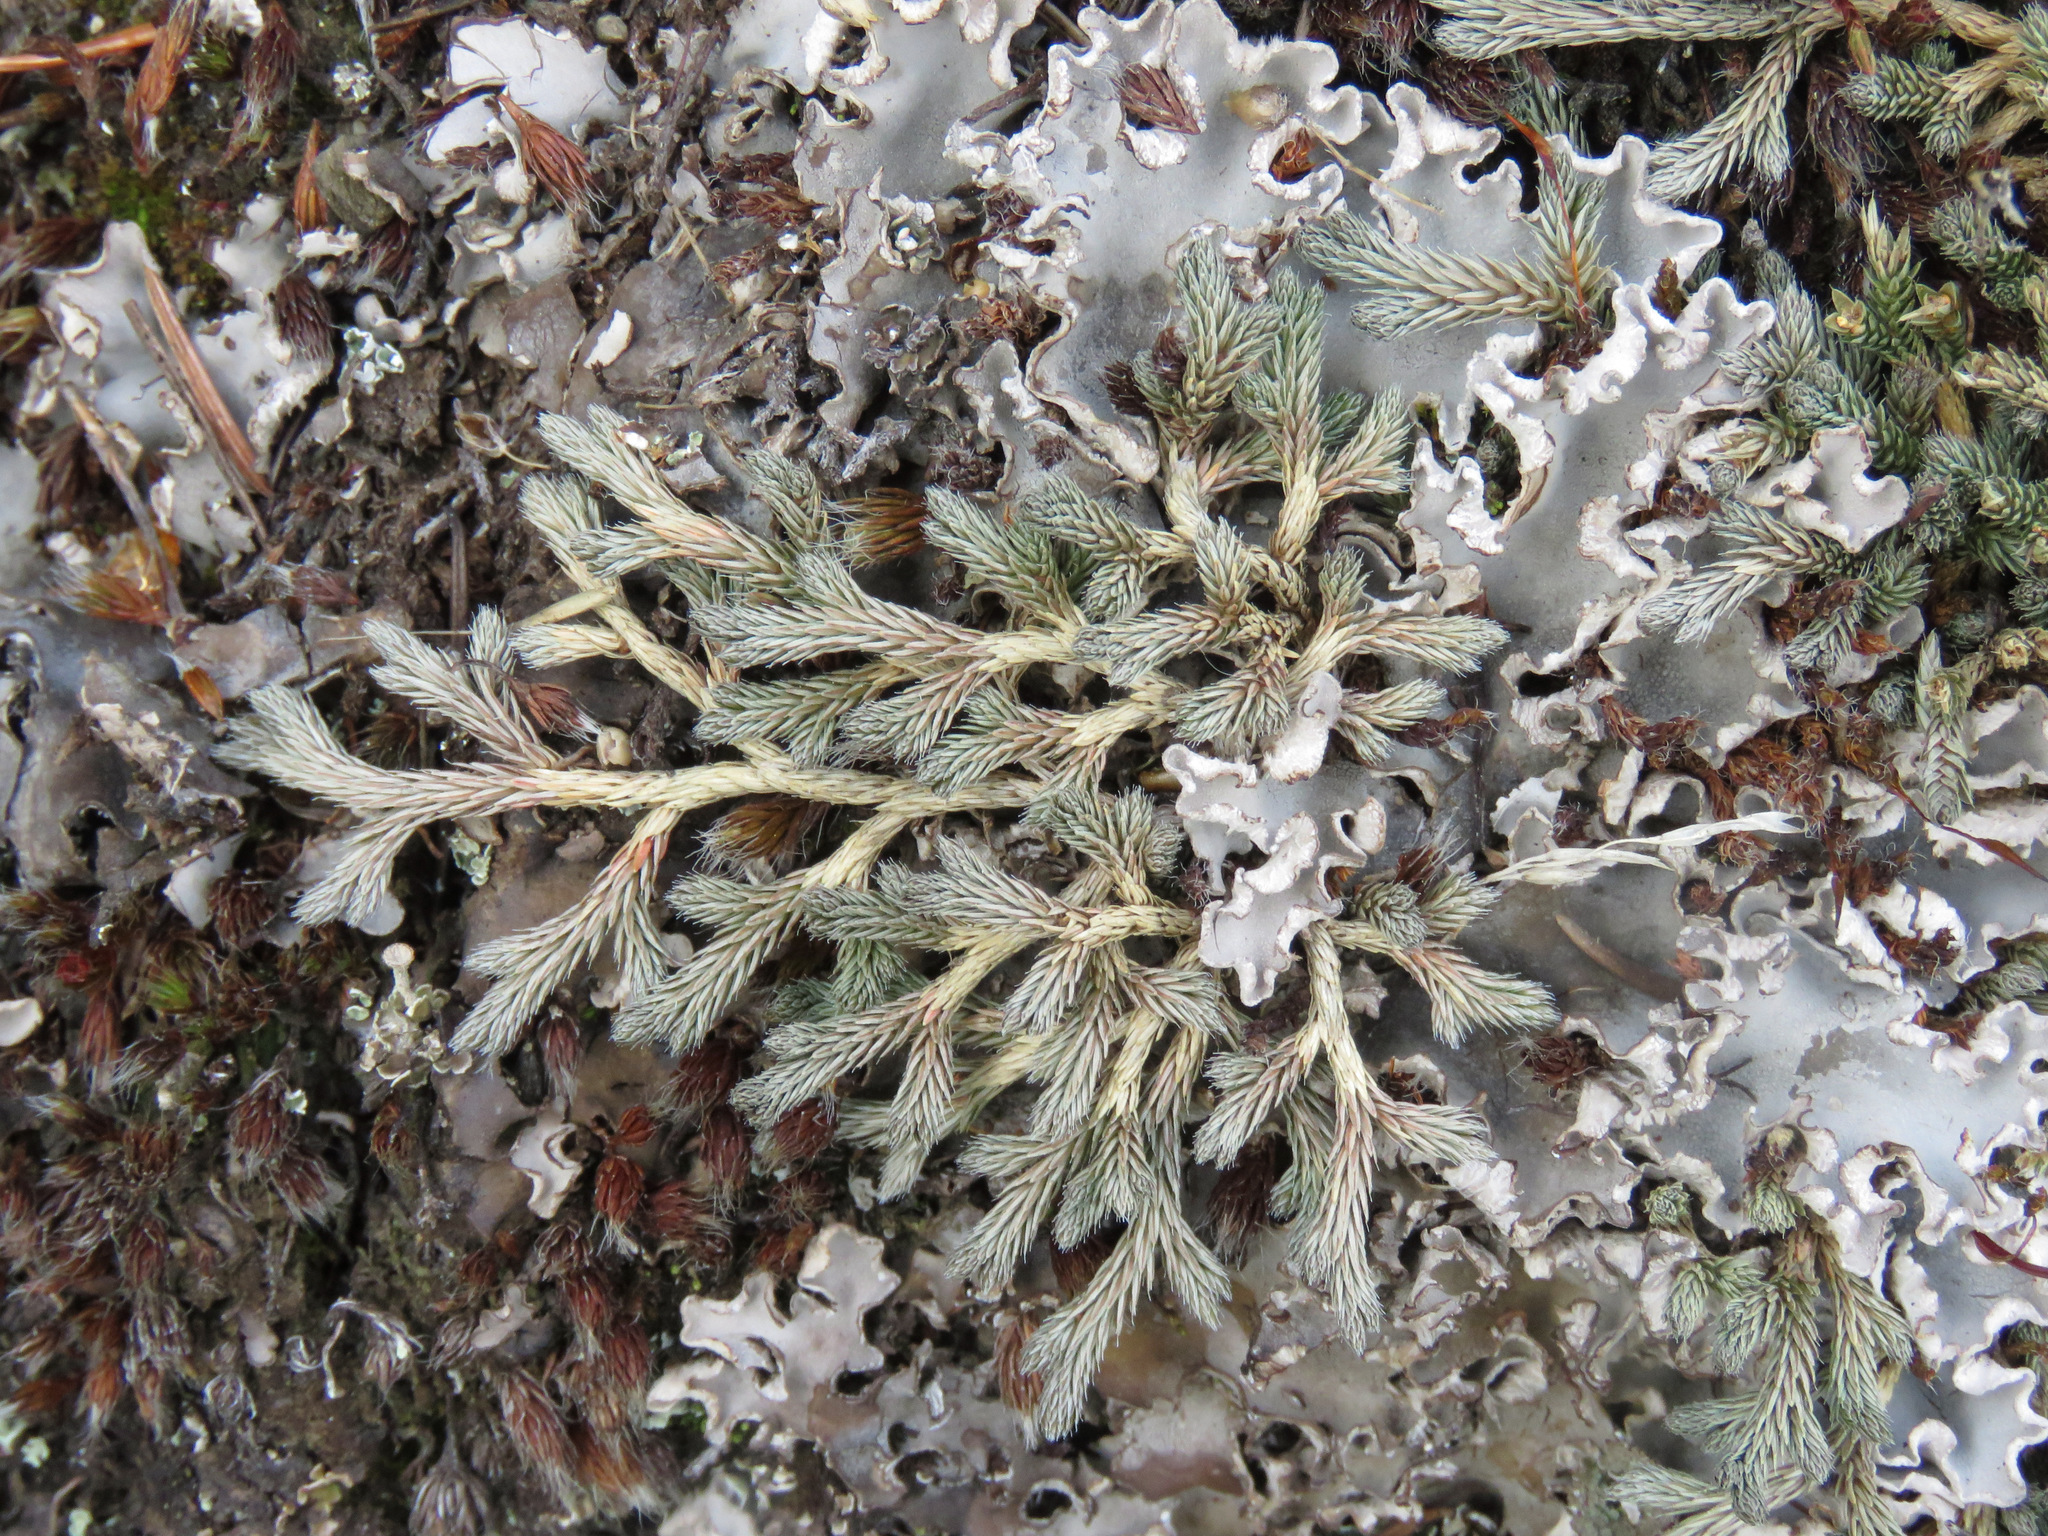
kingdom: Plantae
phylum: Tracheophyta
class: Lycopodiopsida
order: Selaginellales
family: Selaginellaceae
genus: Selaginella
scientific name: Selaginella wallacei
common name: Wallace's selaginella
